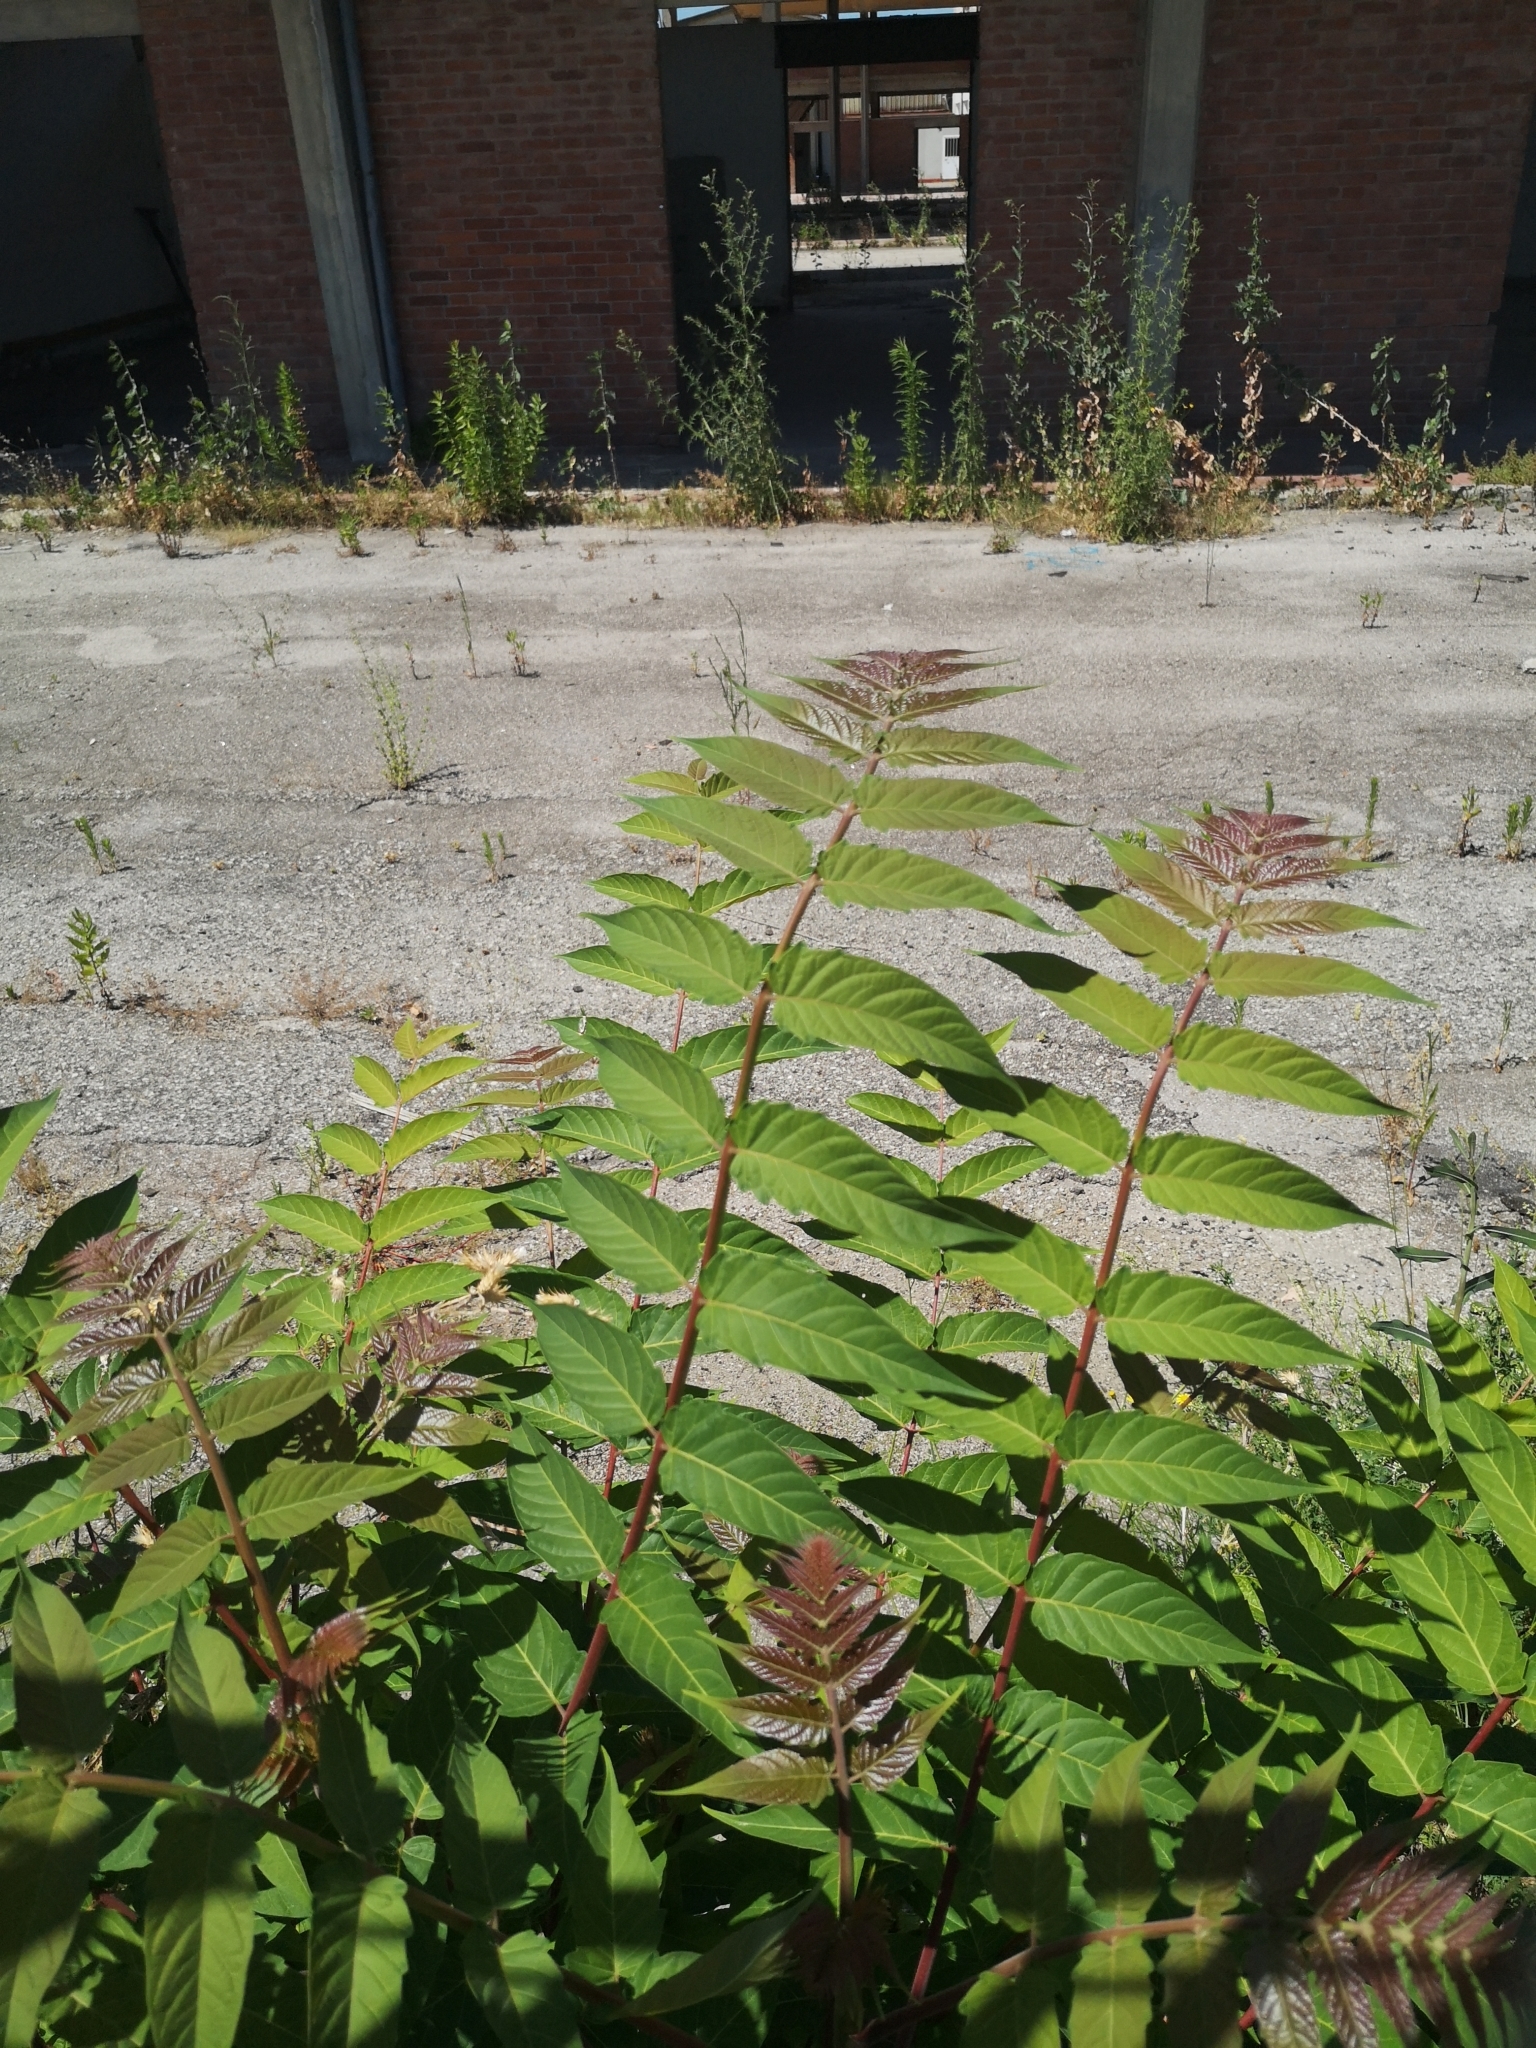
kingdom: Plantae
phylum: Tracheophyta
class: Magnoliopsida
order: Sapindales
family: Simaroubaceae
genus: Ailanthus
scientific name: Ailanthus altissima
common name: Tree-of-heaven
